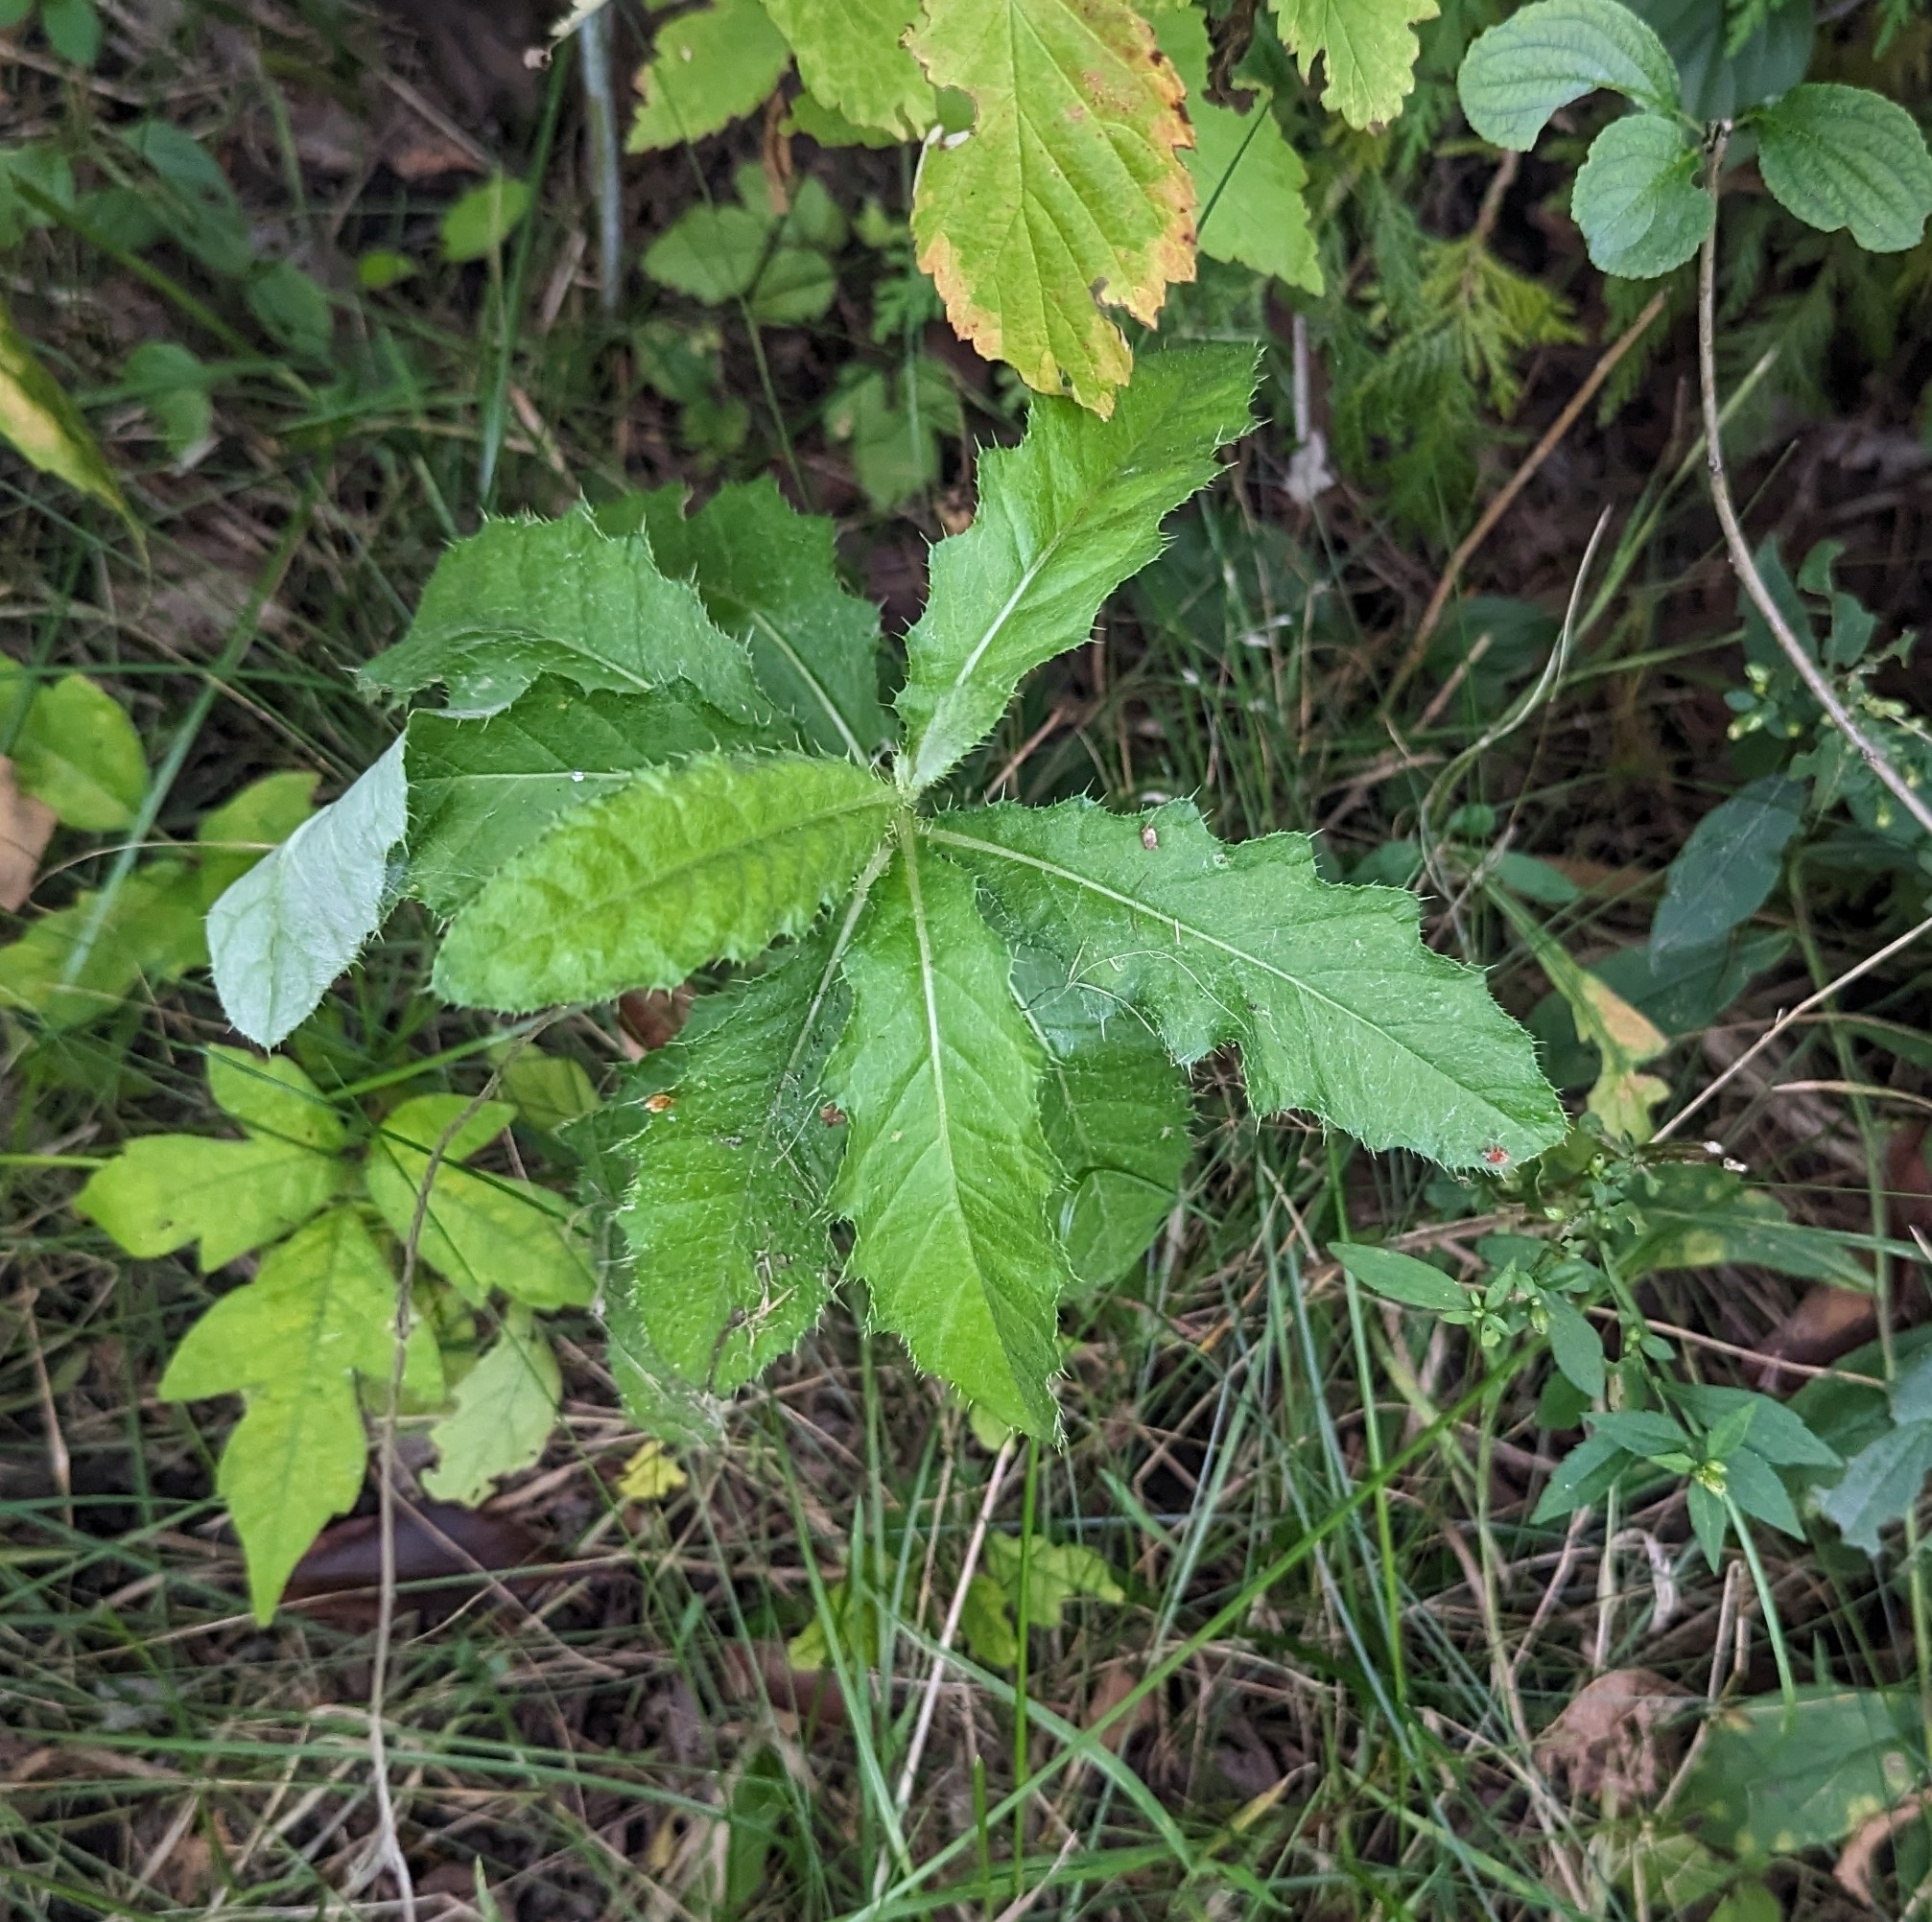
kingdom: Plantae
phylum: Tracheophyta
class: Magnoliopsida
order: Asterales
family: Asteraceae
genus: Cirsium
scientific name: Cirsium arvense
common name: Creeping thistle
